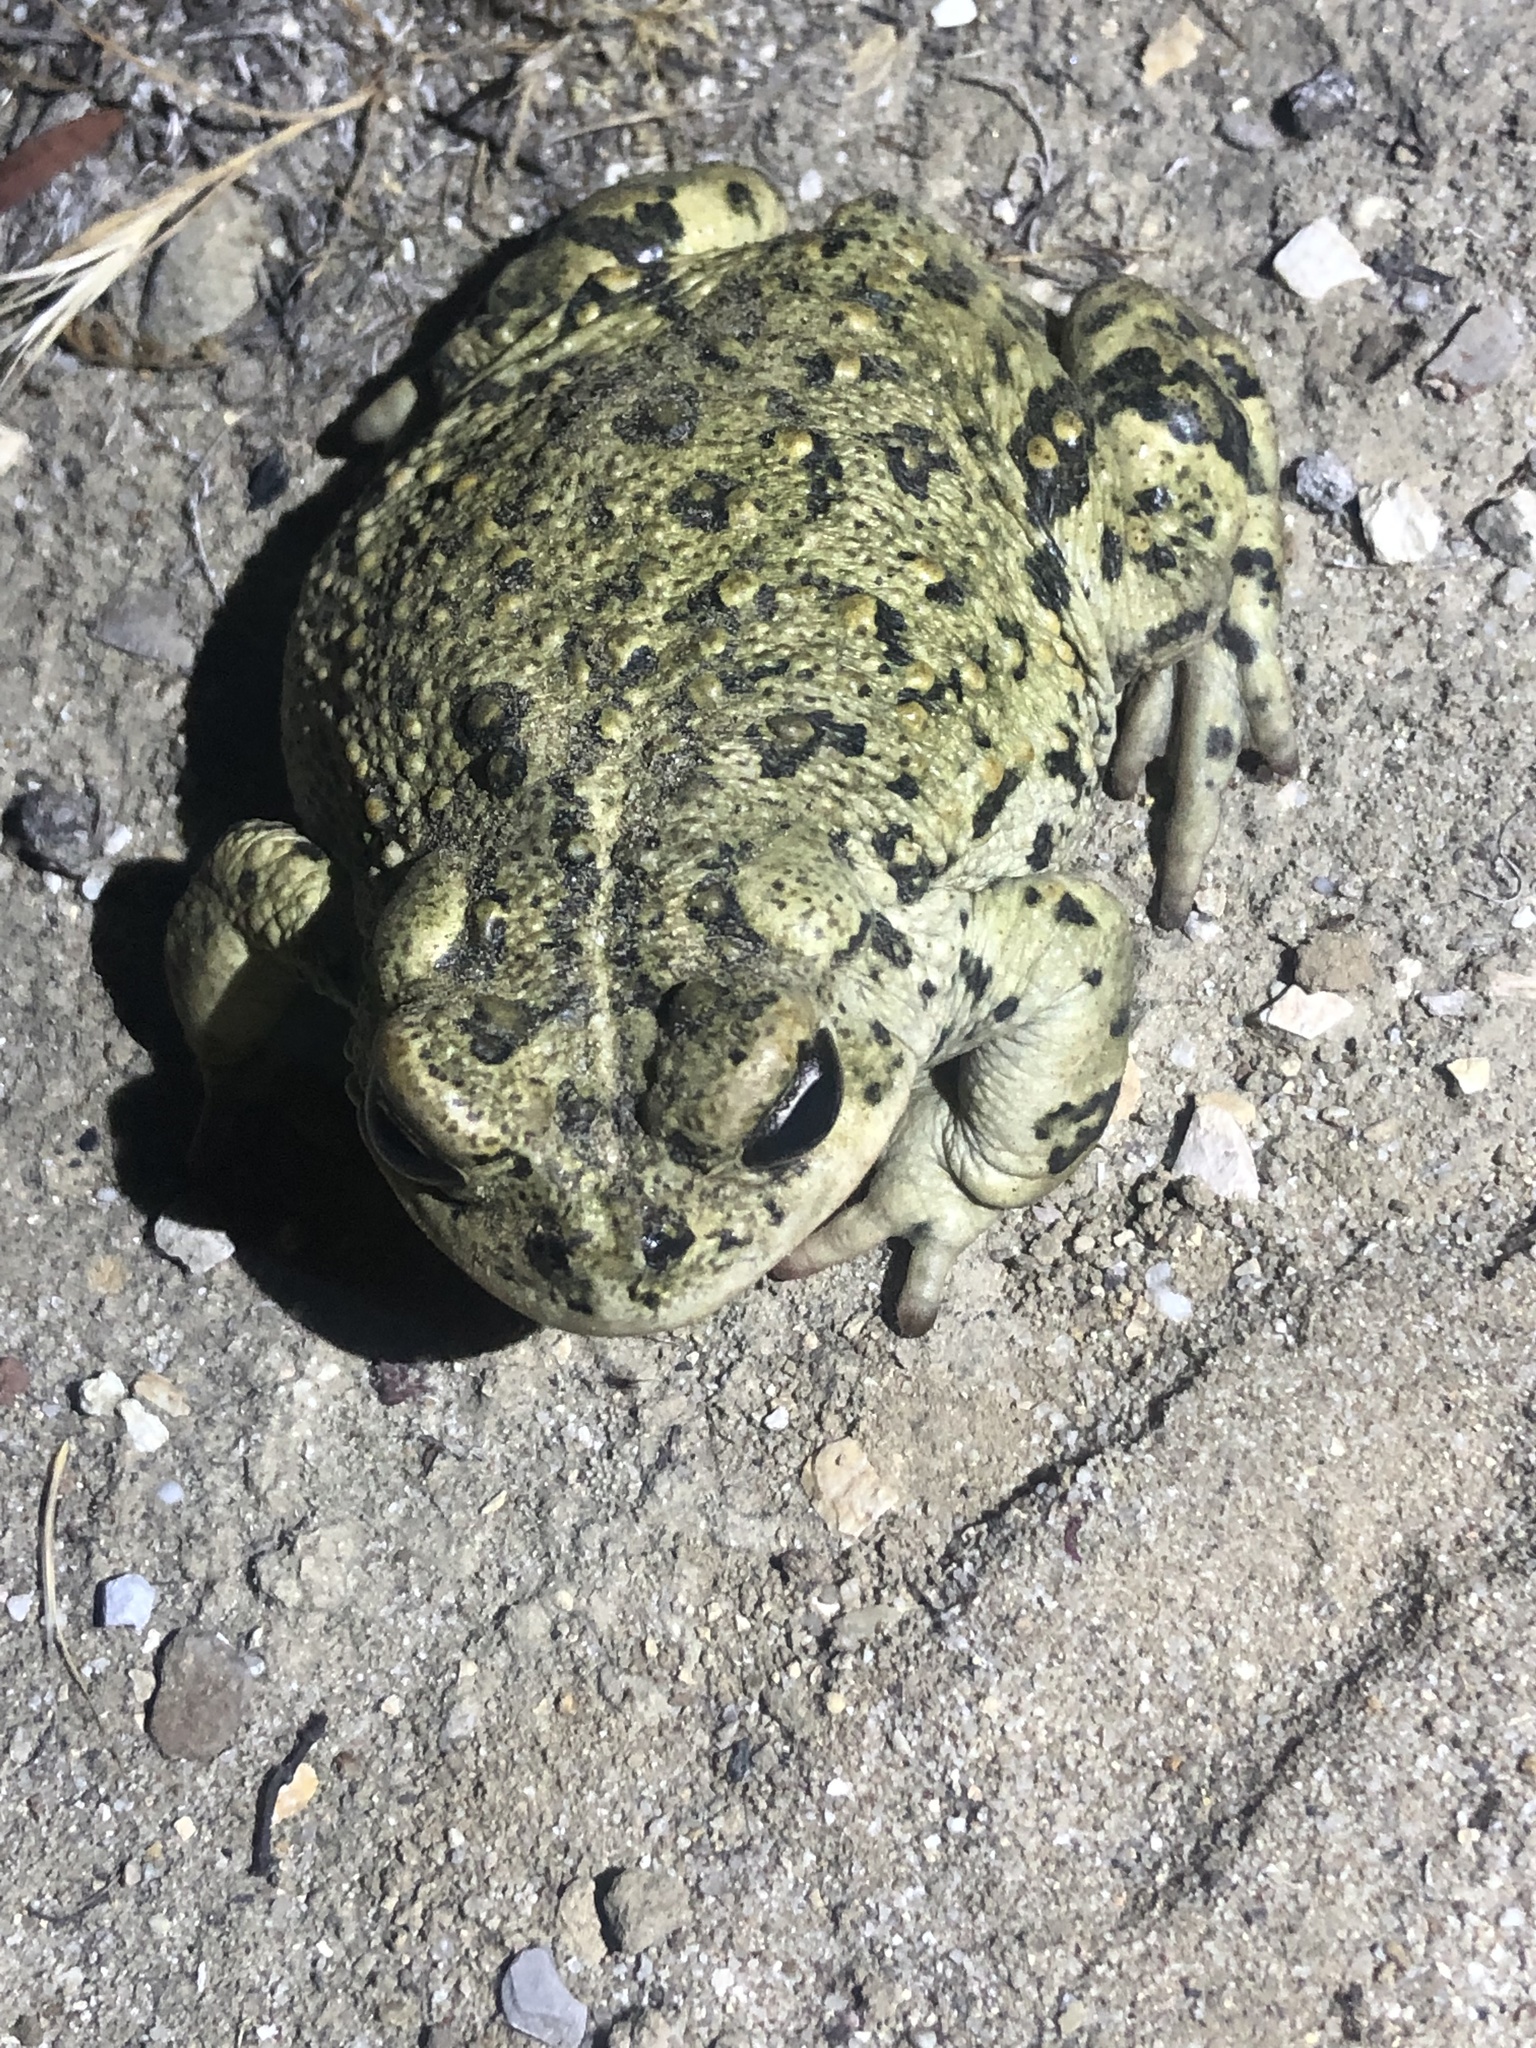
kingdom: Animalia
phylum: Chordata
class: Amphibia
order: Anura
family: Bufonidae
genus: Anaxyrus
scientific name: Anaxyrus boreas
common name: Western toad
